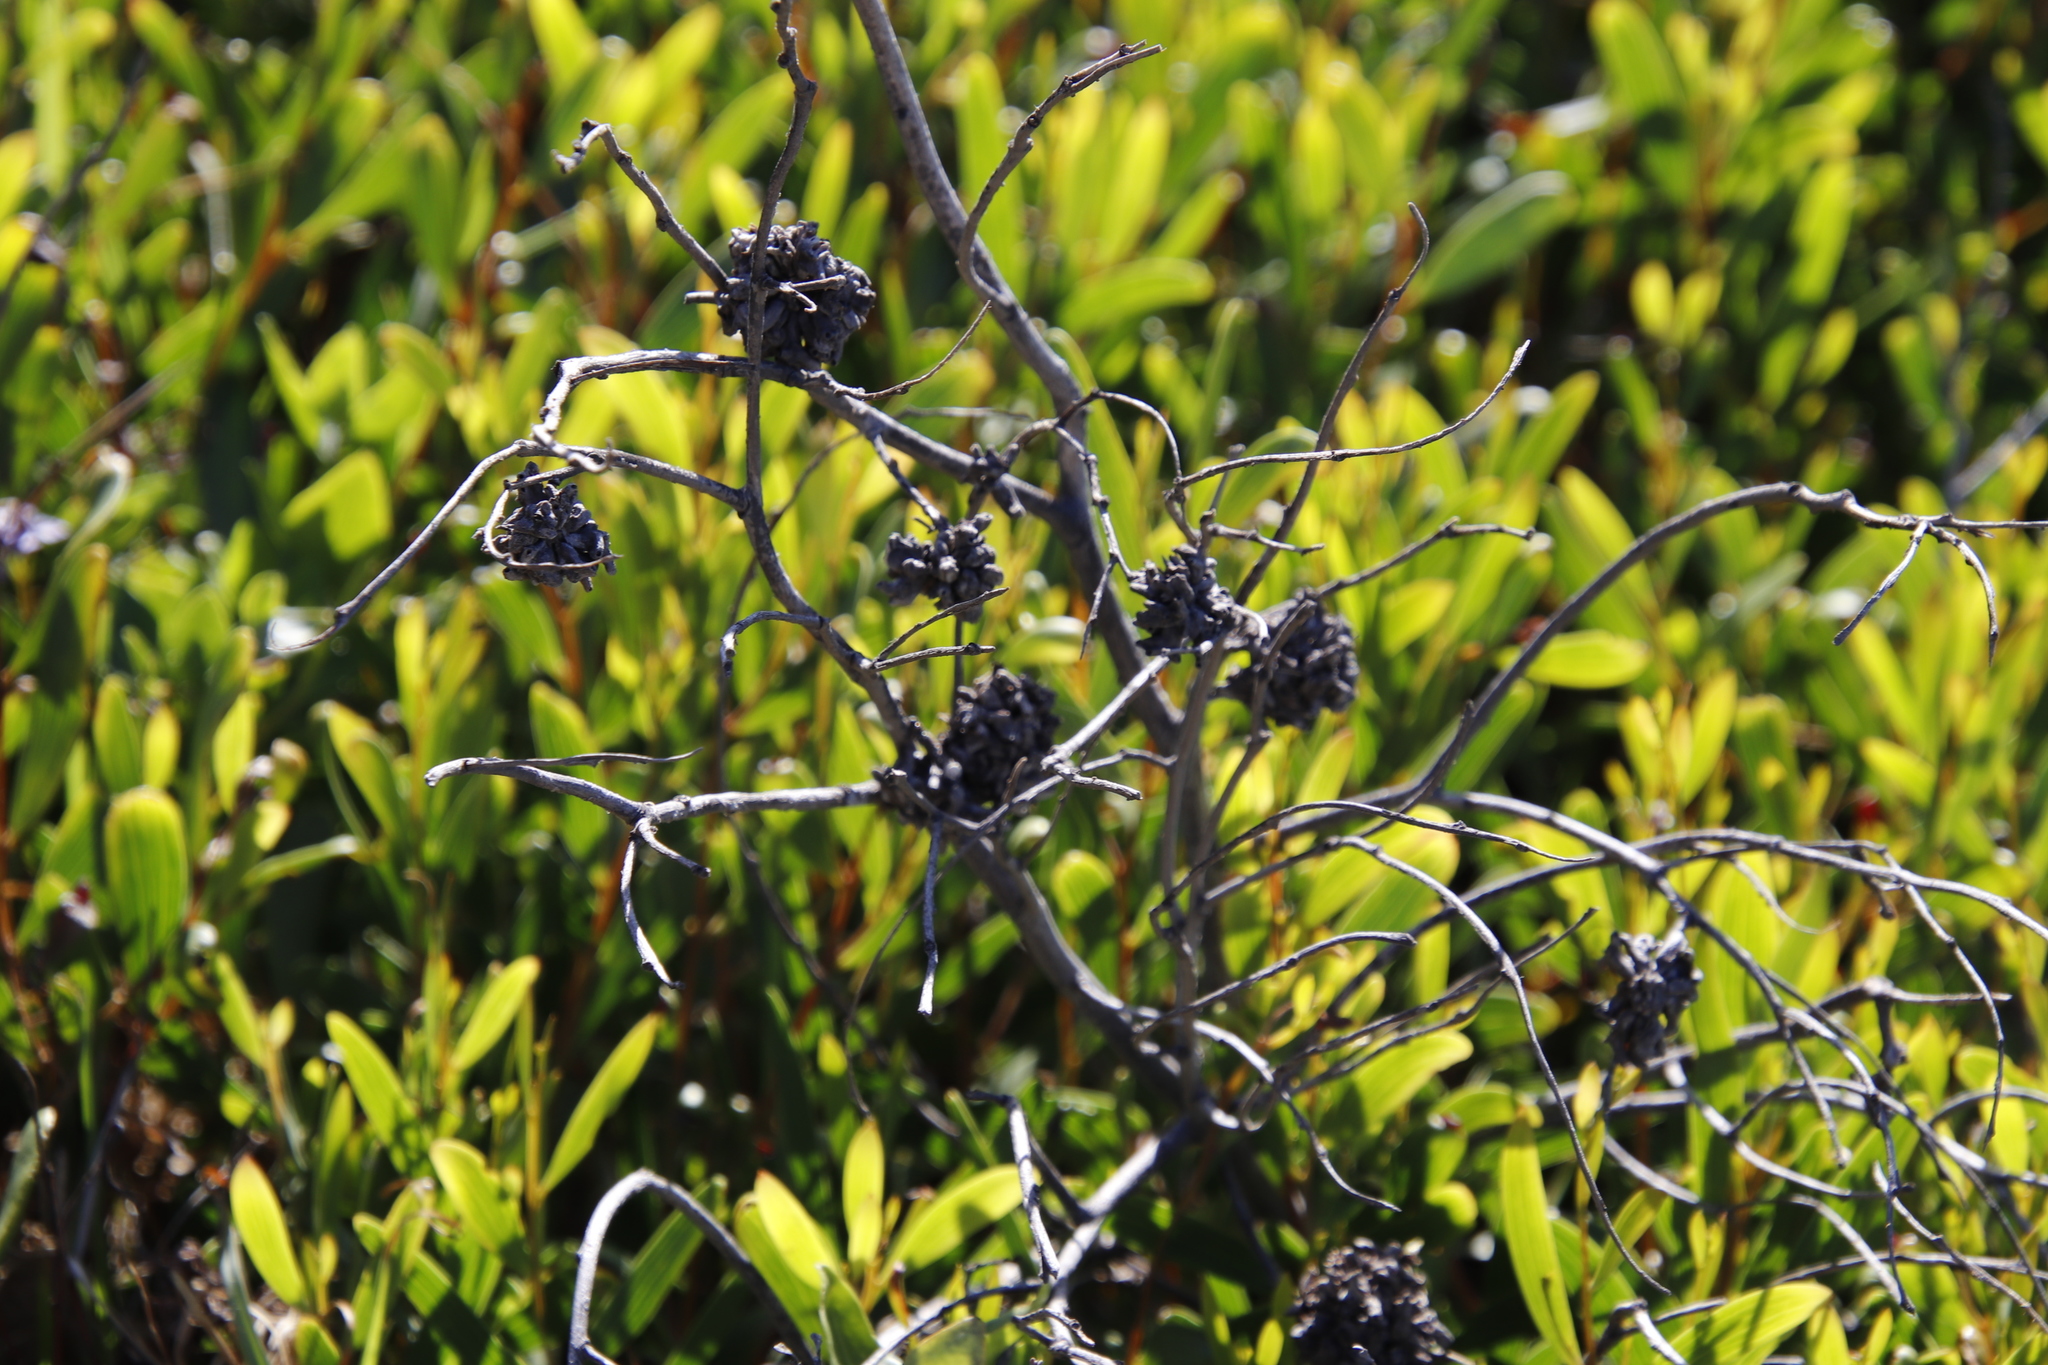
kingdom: Animalia
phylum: Arthropoda
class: Insecta
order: Diptera
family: Cecidomyiidae
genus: Dasineura
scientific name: Dasineura dielsi
